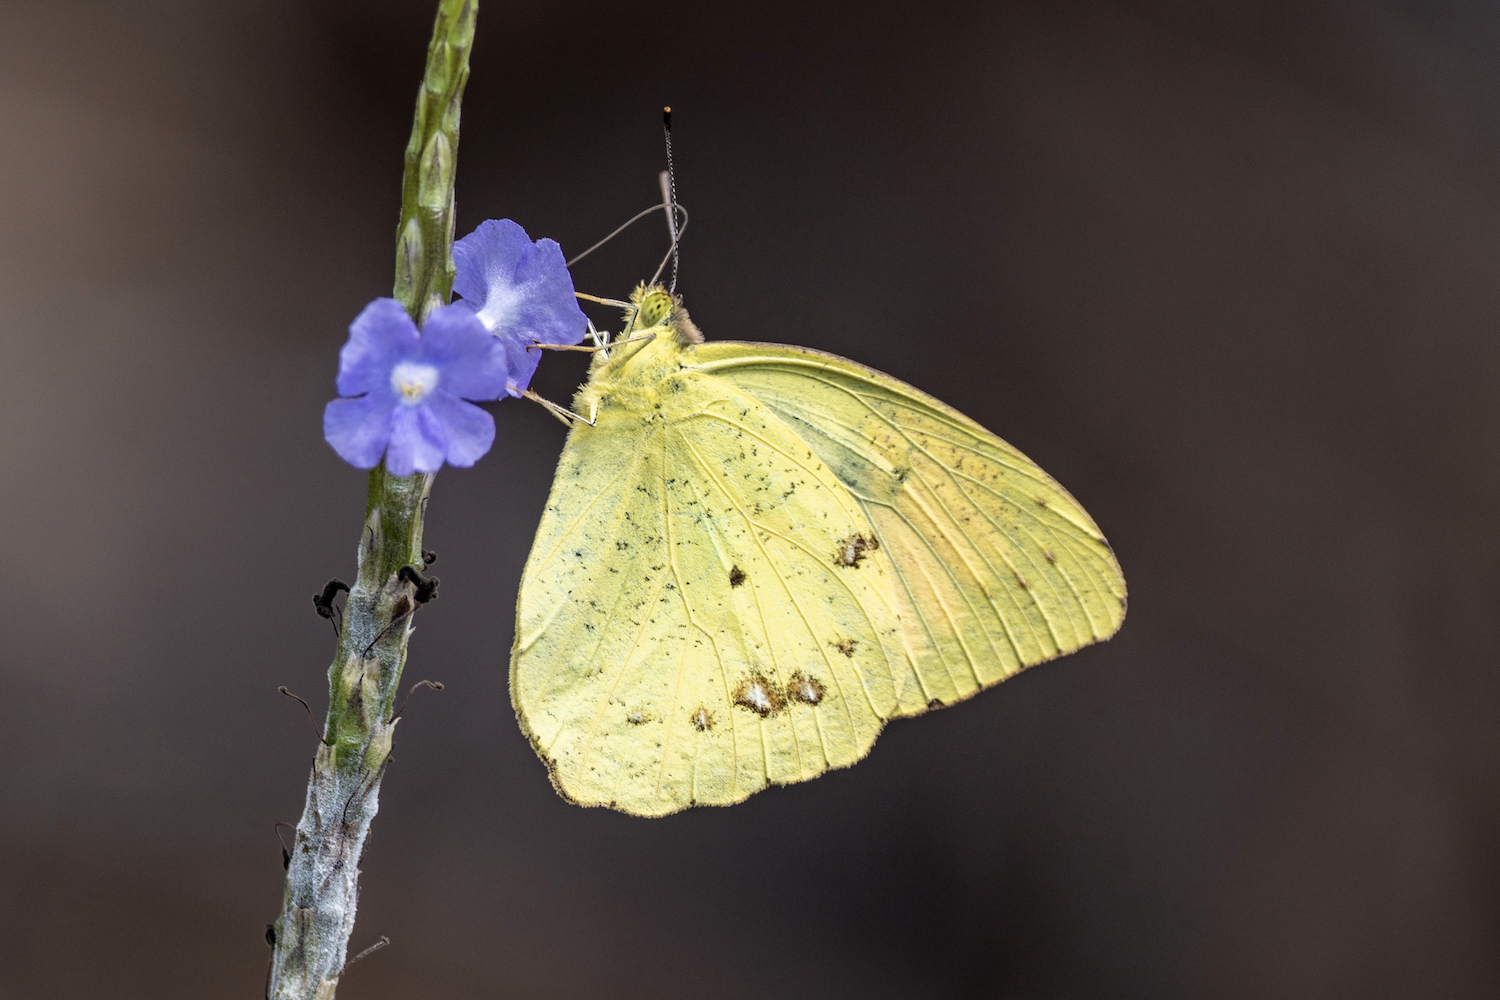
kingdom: Animalia
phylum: Arthropoda
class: Insecta
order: Lepidoptera
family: Pieridae
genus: Ixias
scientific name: Ixias pyrene
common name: Yellow orange tip
